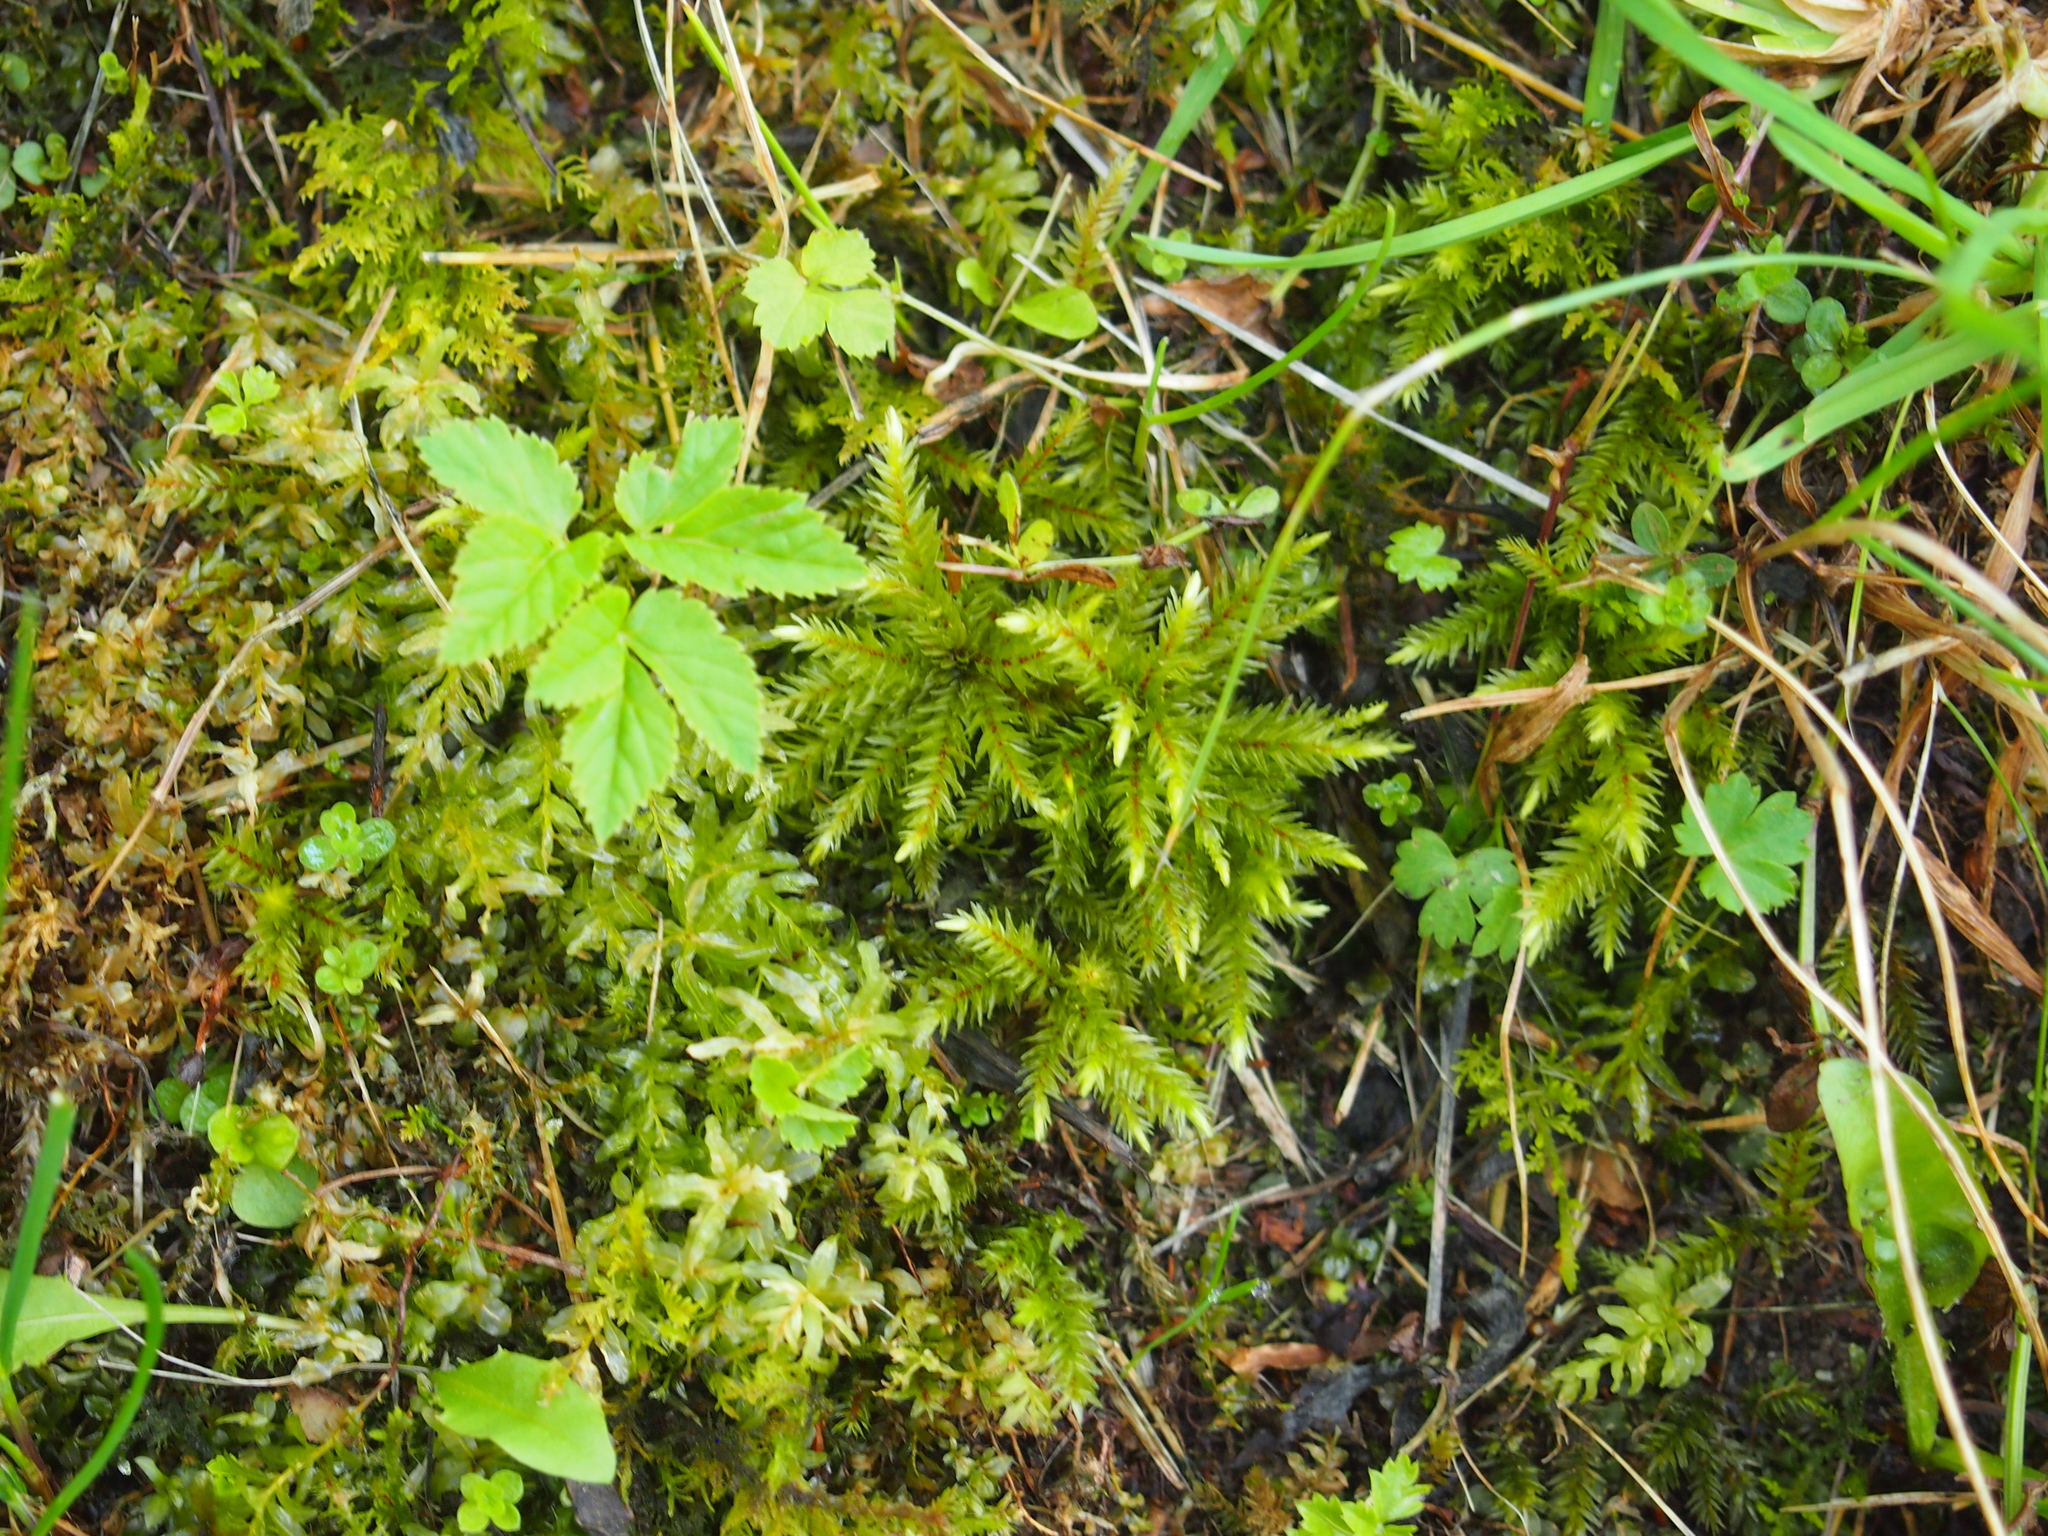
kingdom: Plantae
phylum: Bryophyta
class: Bryopsida
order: Hypnales
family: Climaciaceae
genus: Climacium
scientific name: Climacium dendroides
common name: Northern tree moss
